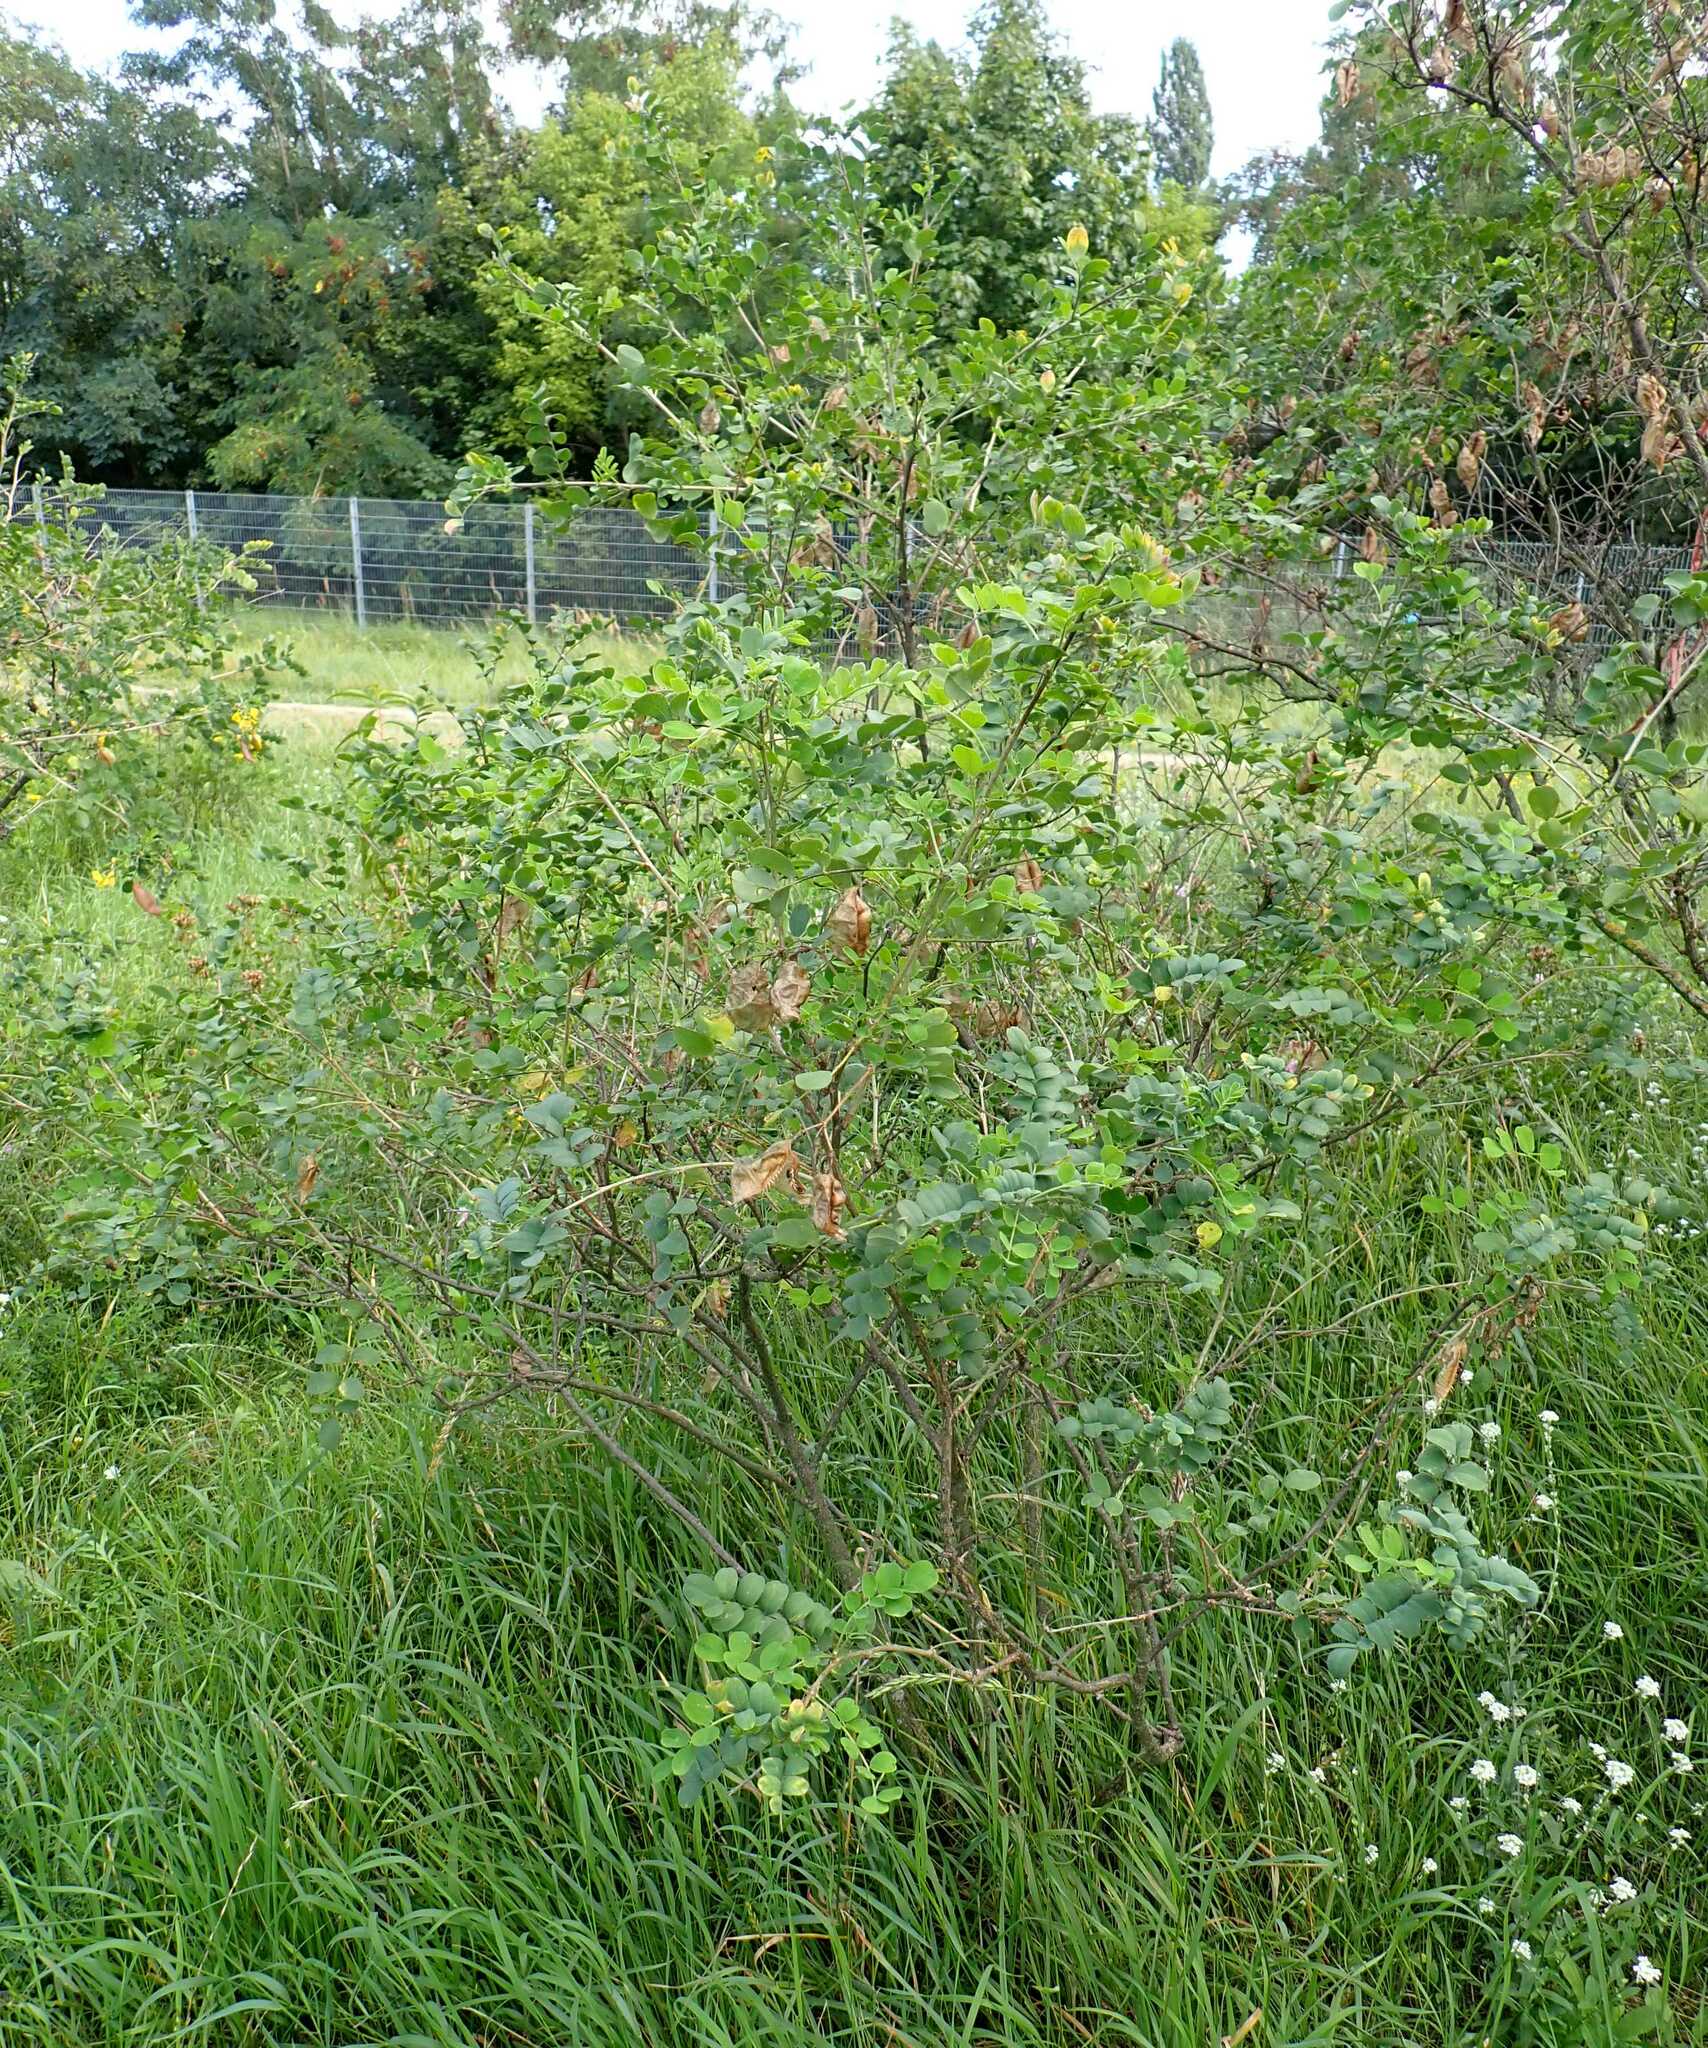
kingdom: Plantae
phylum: Tracheophyta
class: Magnoliopsida
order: Fabales
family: Fabaceae
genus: Colutea
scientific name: Colutea arborescens
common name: Bladder-senna
